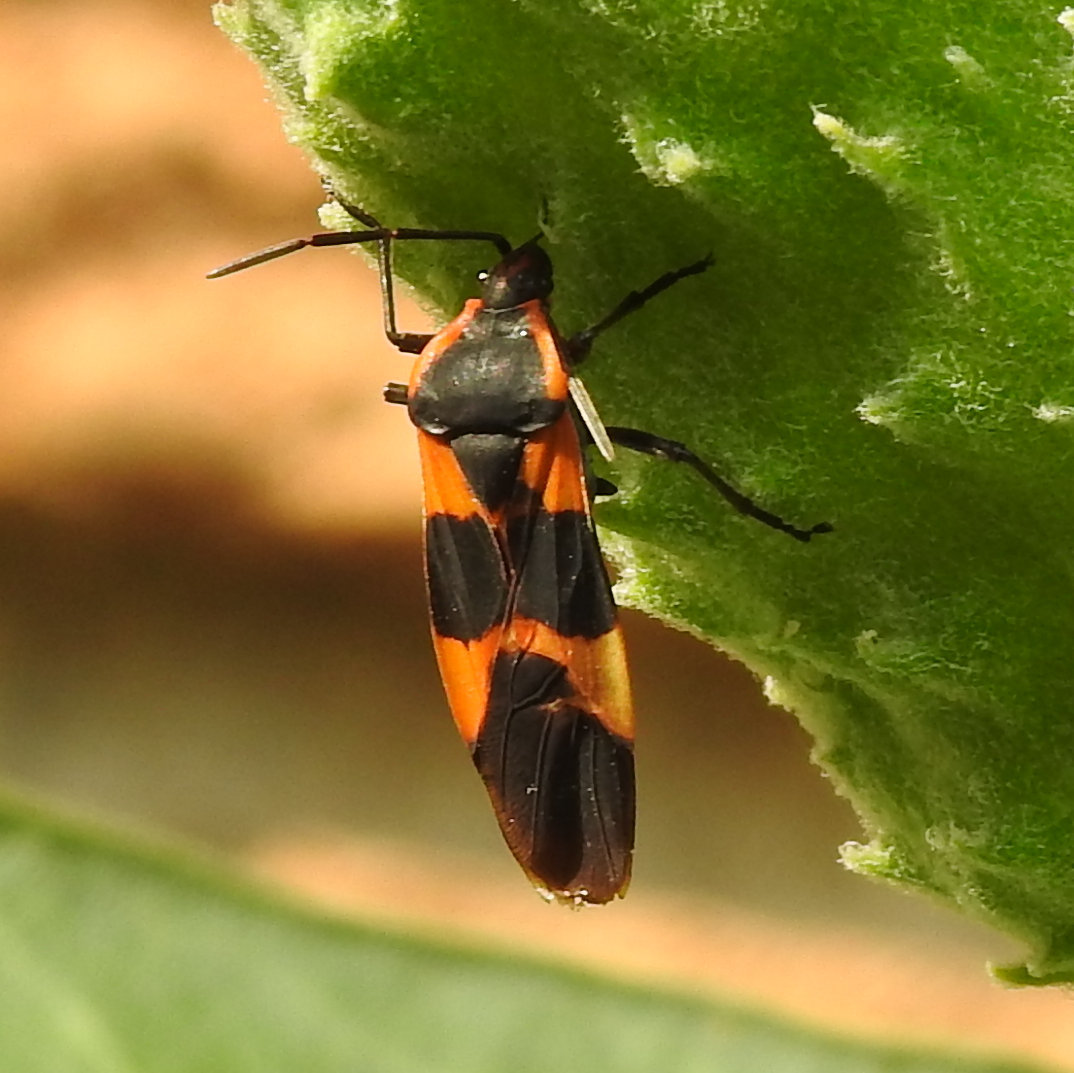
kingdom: Animalia
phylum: Arthropoda
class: Insecta
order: Hemiptera
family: Lygaeidae
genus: Oncopeltus
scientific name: Oncopeltus fasciatus
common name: Large milkweed bug
